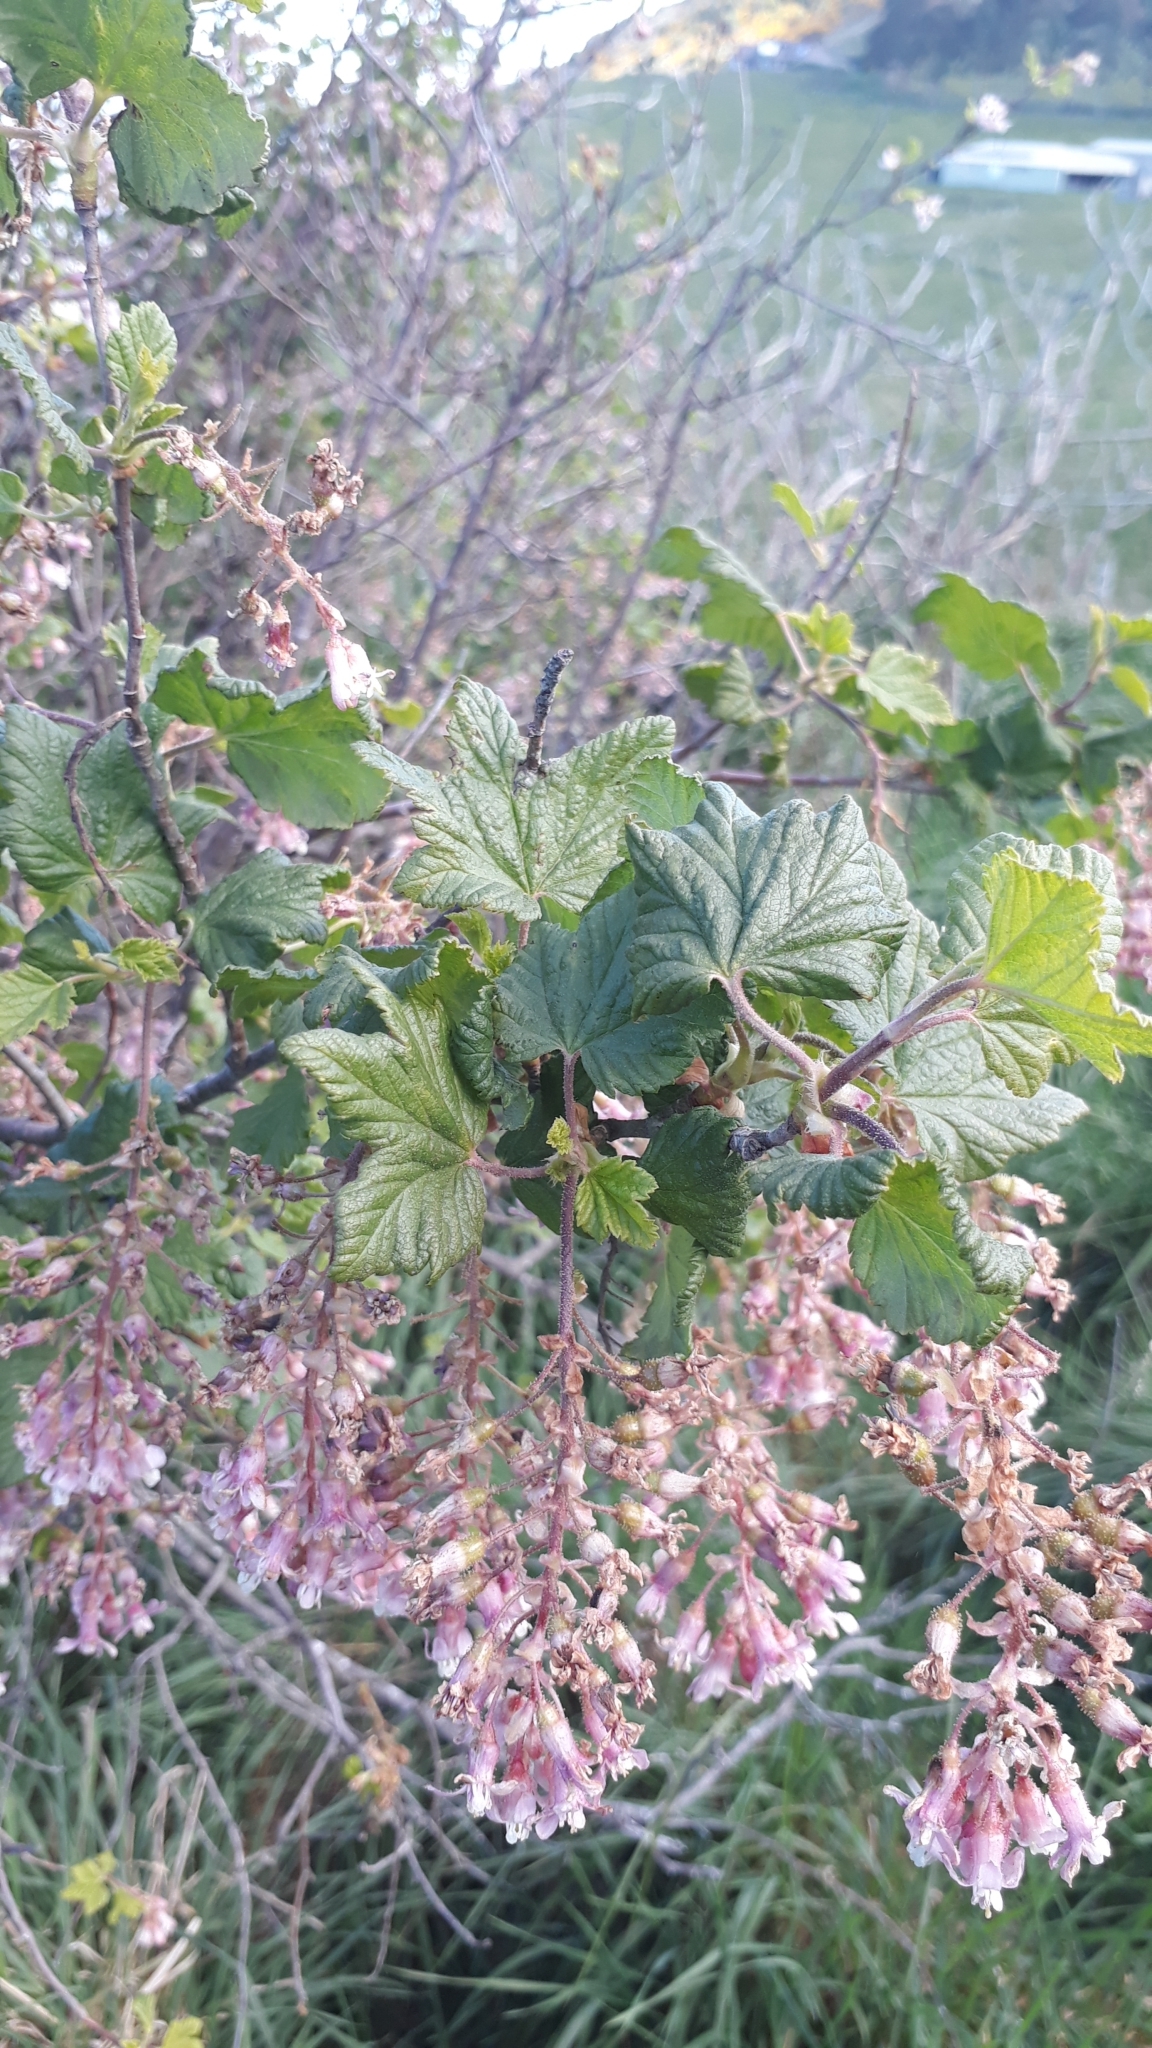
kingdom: Plantae
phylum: Tracheophyta
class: Magnoliopsida
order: Saxifragales
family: Grossulariaceae
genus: Ribes
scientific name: Ribes sanguineum
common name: Flowering currant
